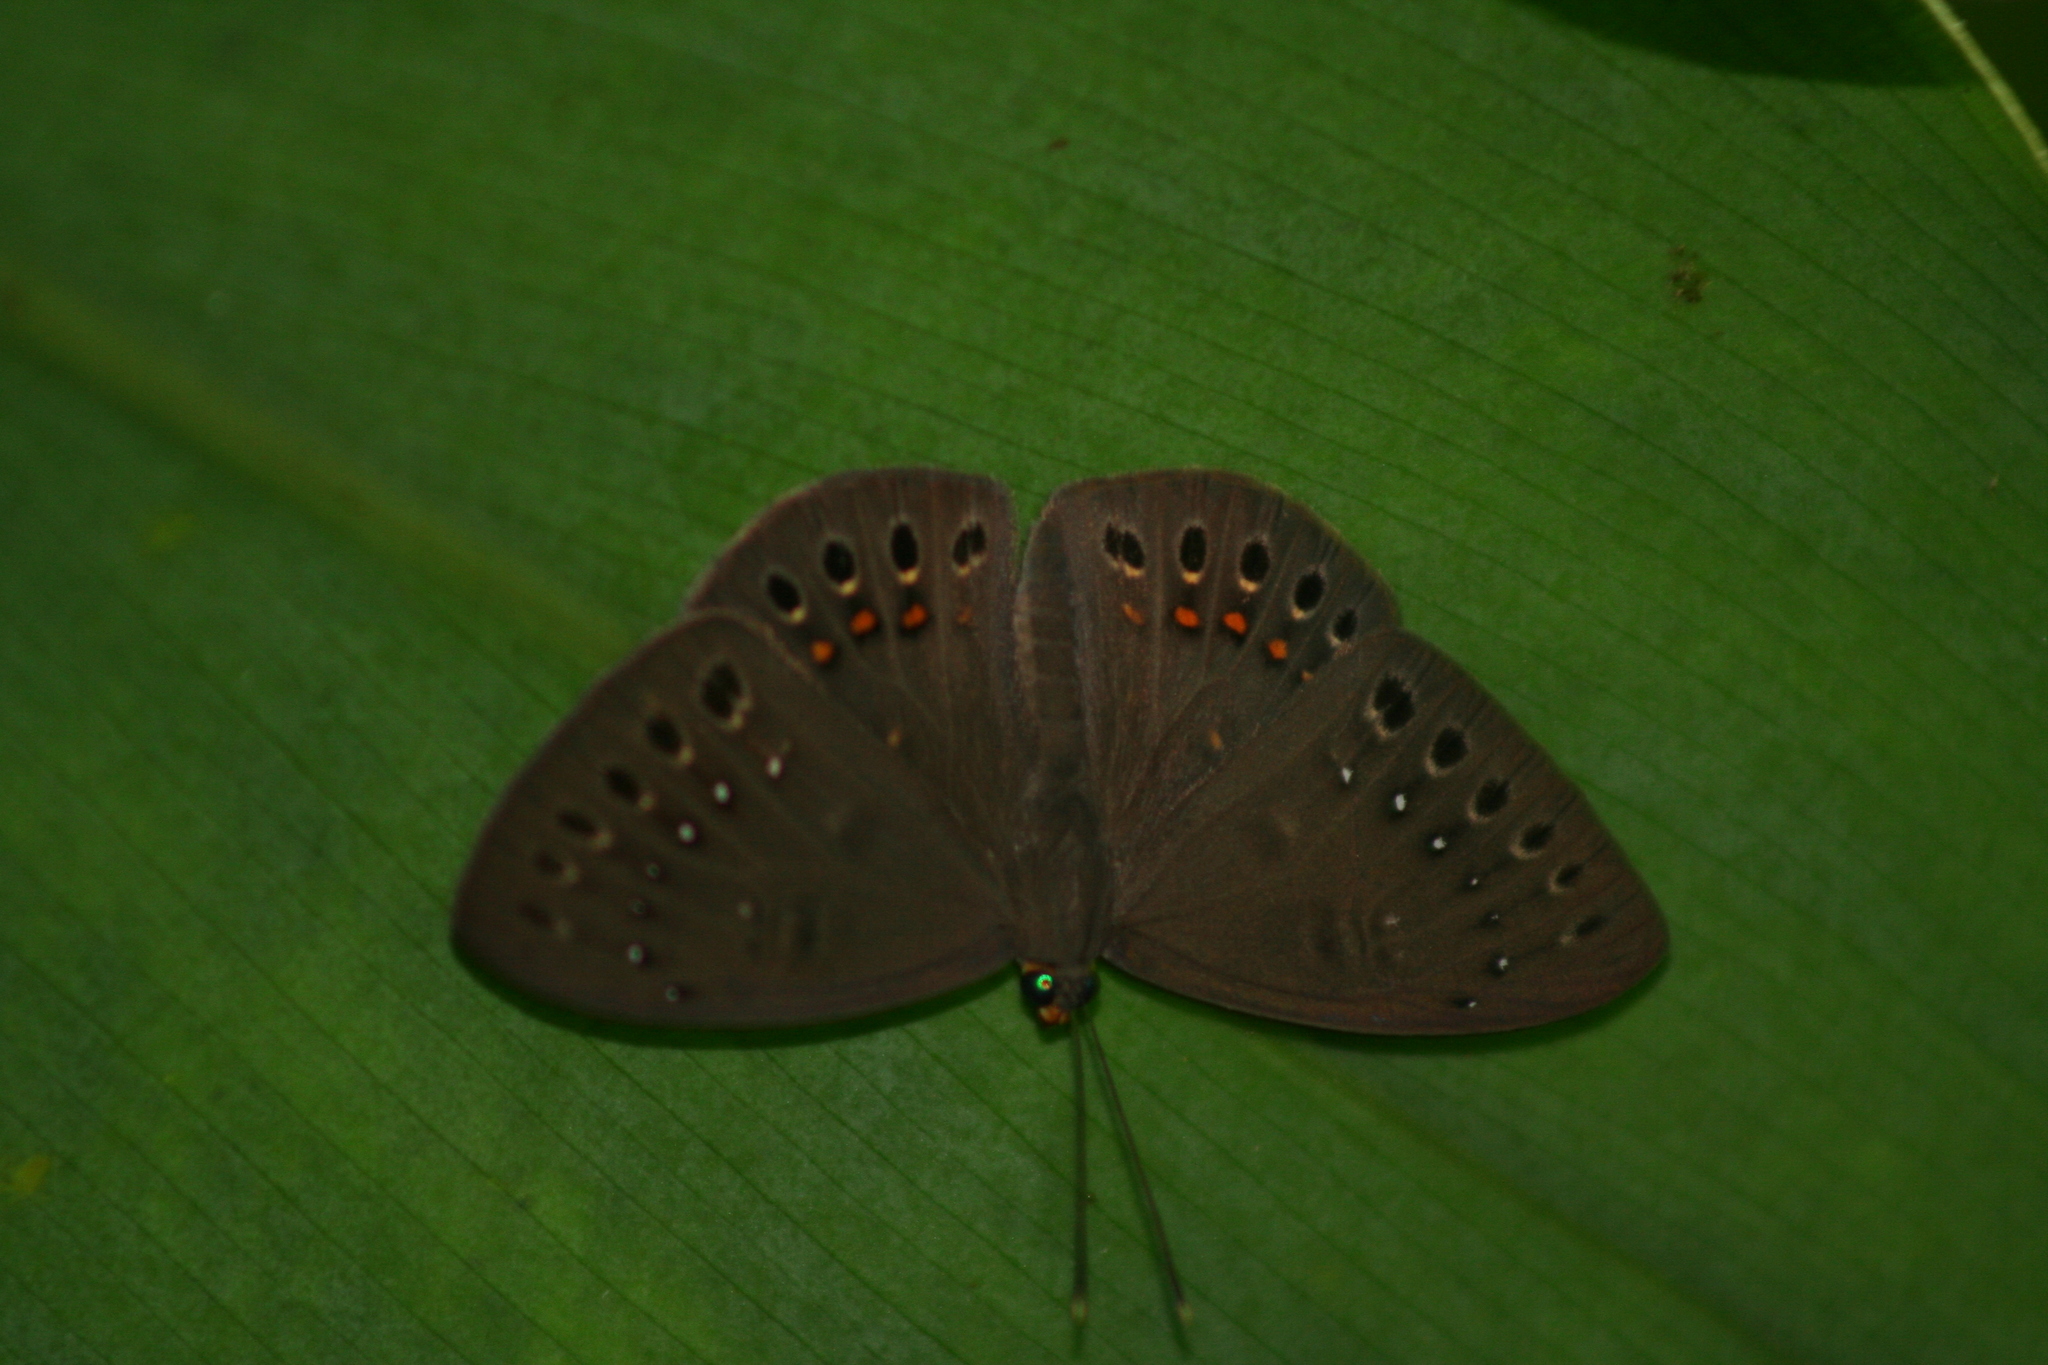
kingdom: Animalia
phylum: Cnidaria
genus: Eurybia
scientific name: Eurybia elvina
